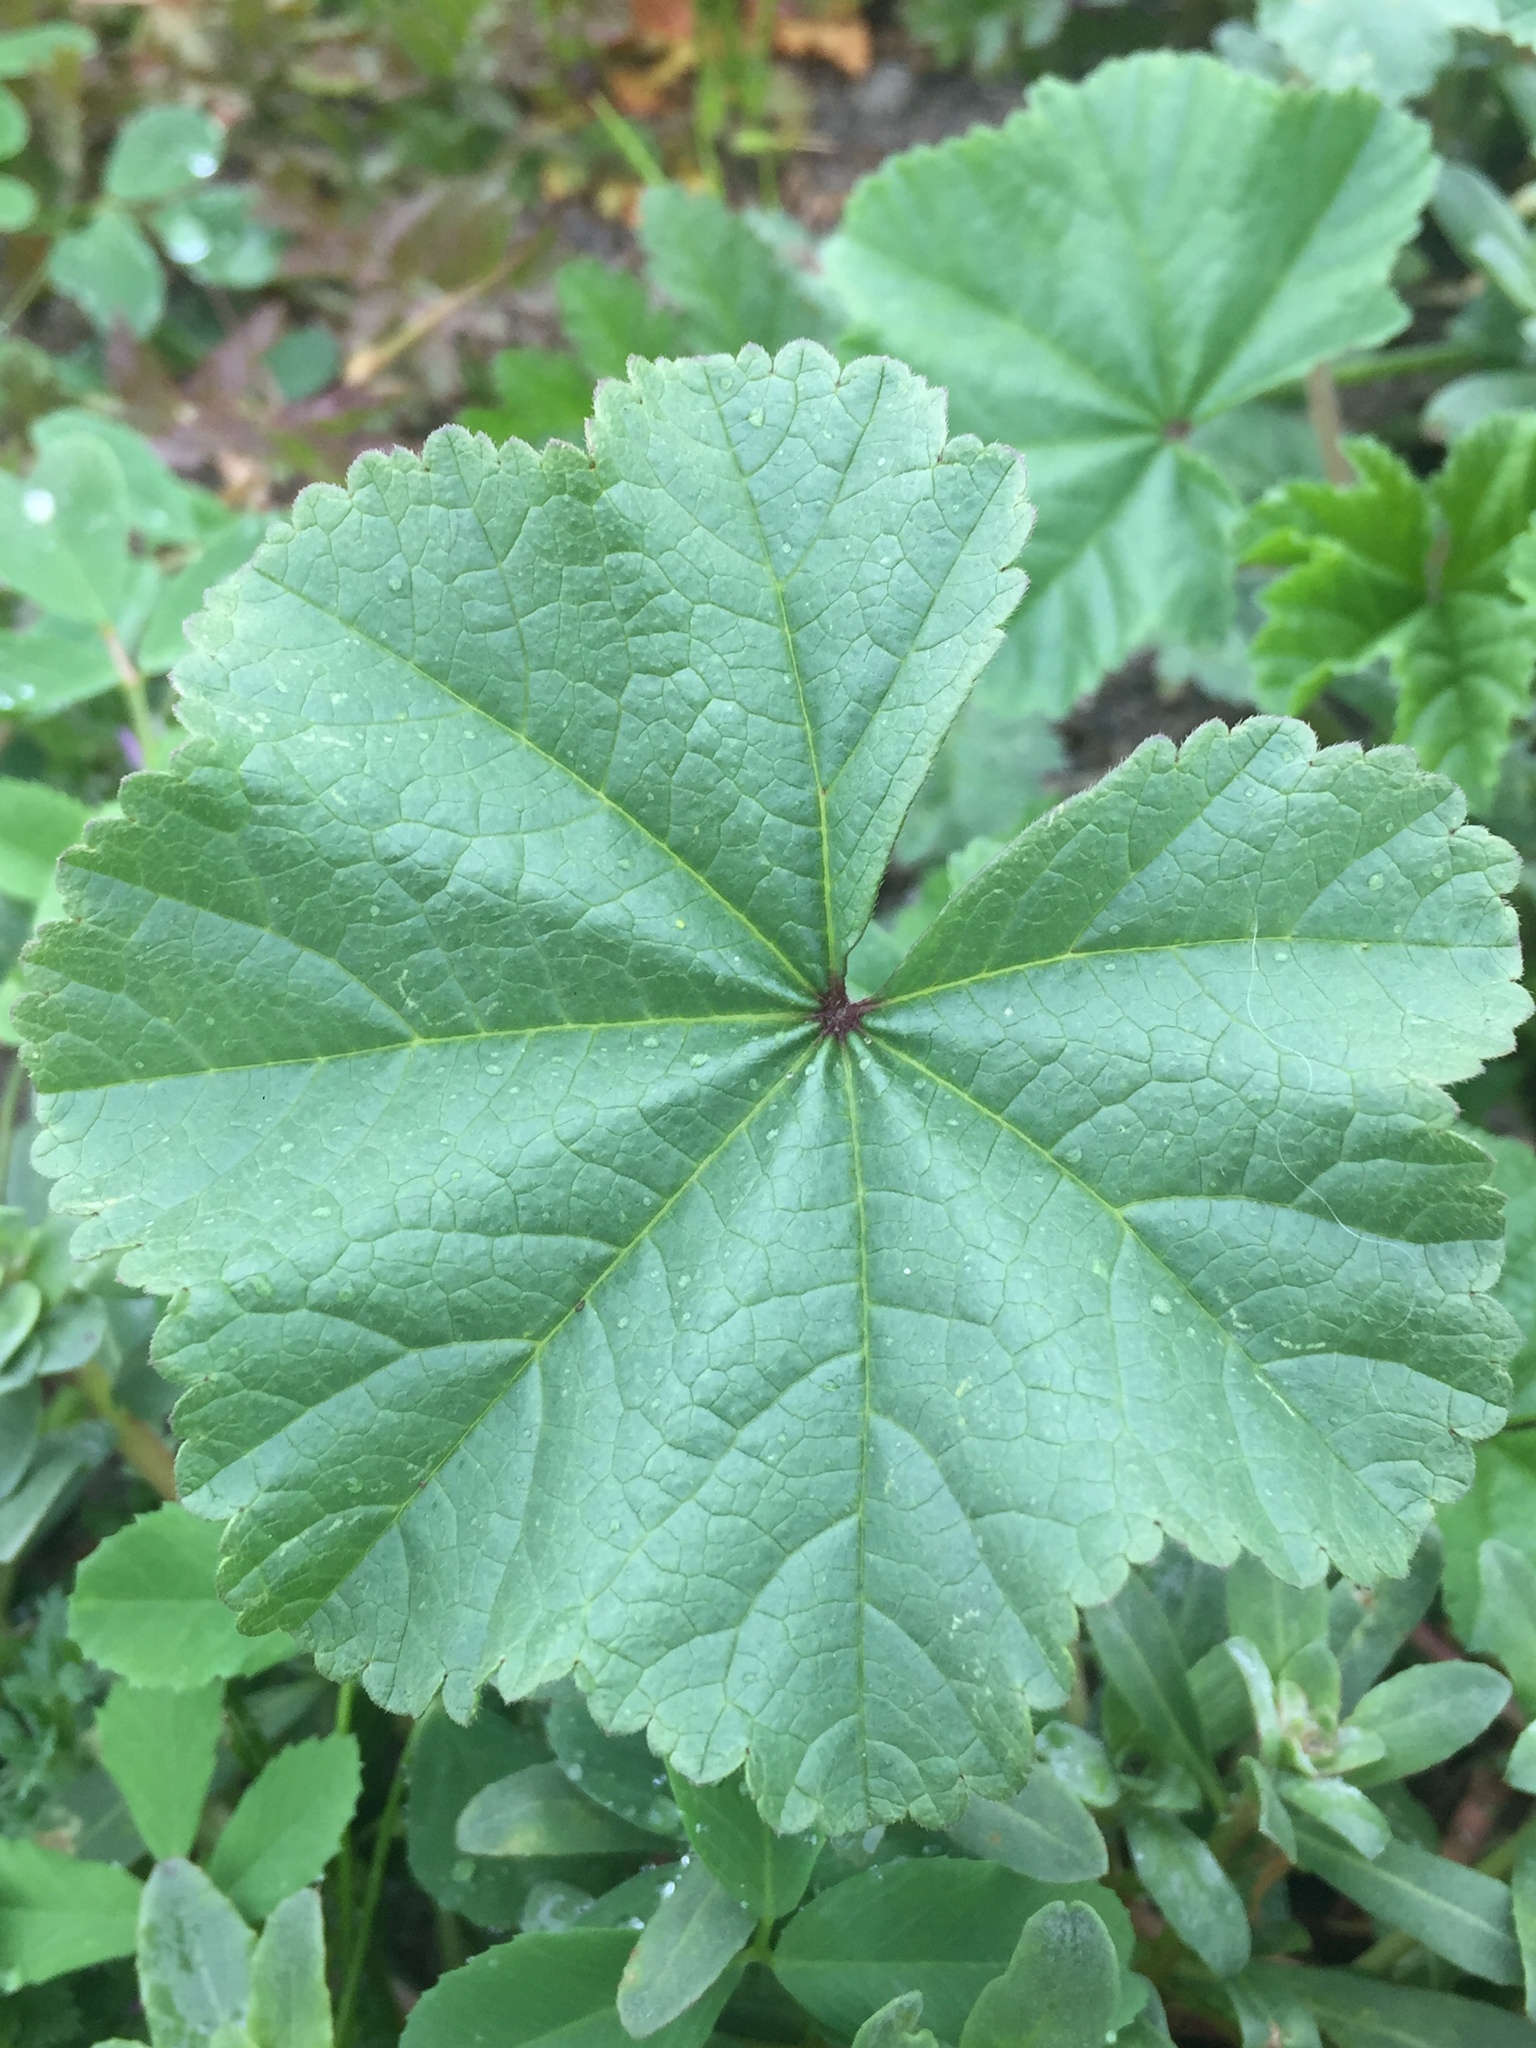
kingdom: Plantae
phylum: Tracheophyta
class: Magnoliopsida
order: Malvales
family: Malvaceae
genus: Malva
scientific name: Malva
